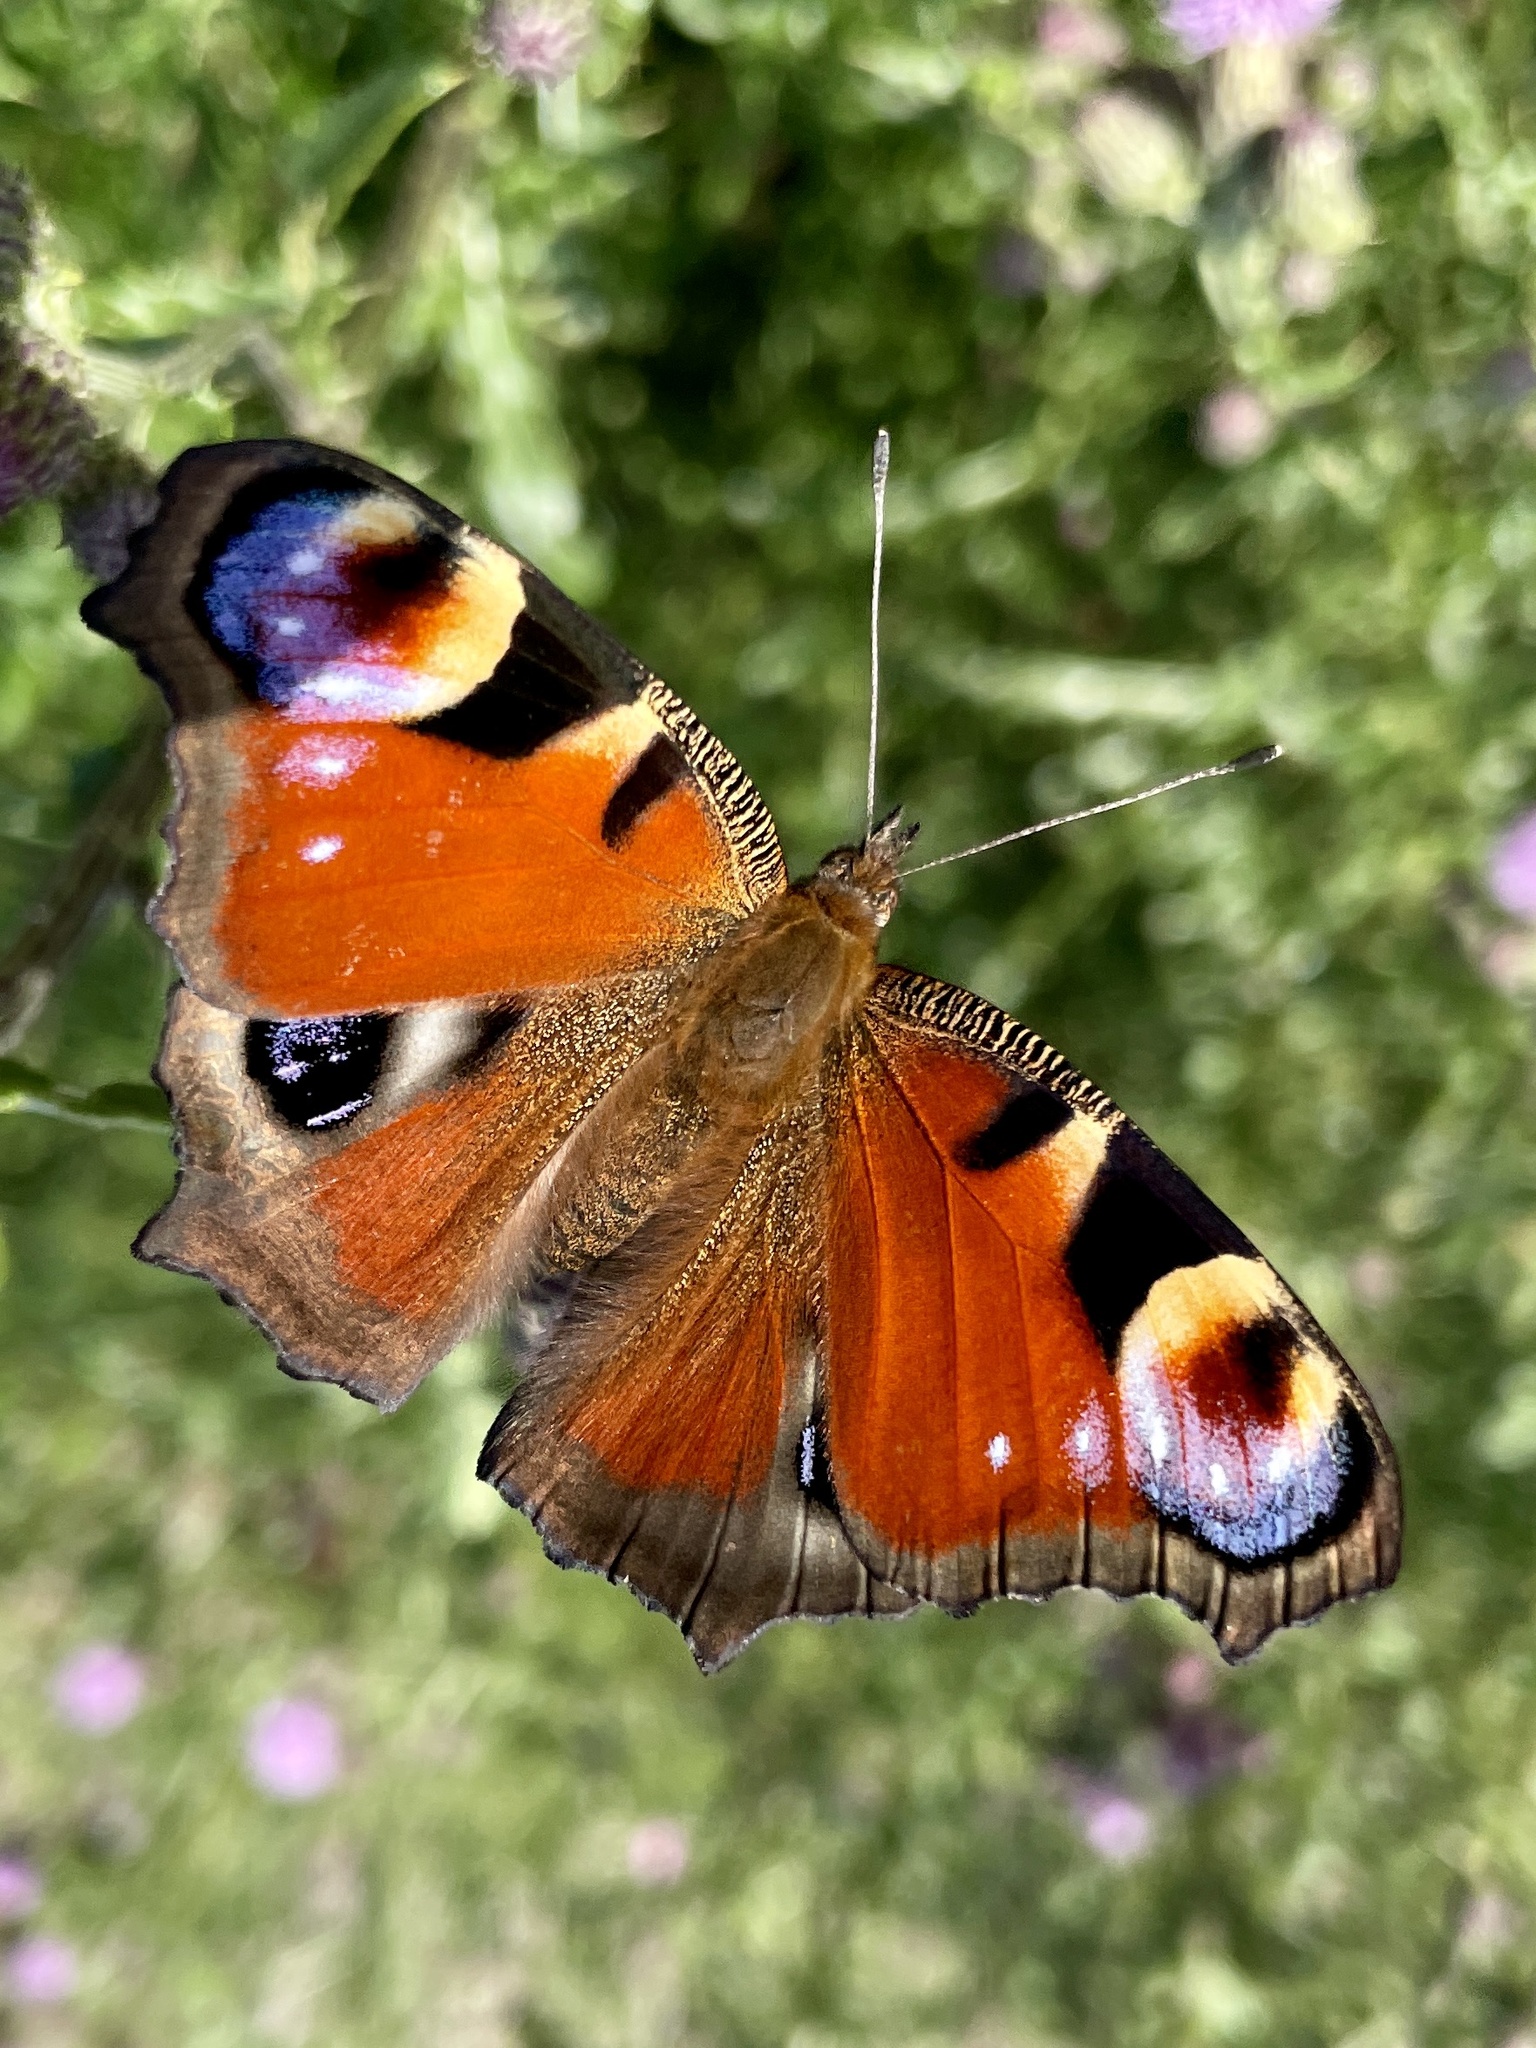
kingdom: Animalia
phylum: Arthropoda
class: Insecta
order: Lepidoptera
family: Nymphalidae
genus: Aglais
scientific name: Aglais io
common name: Peacock
